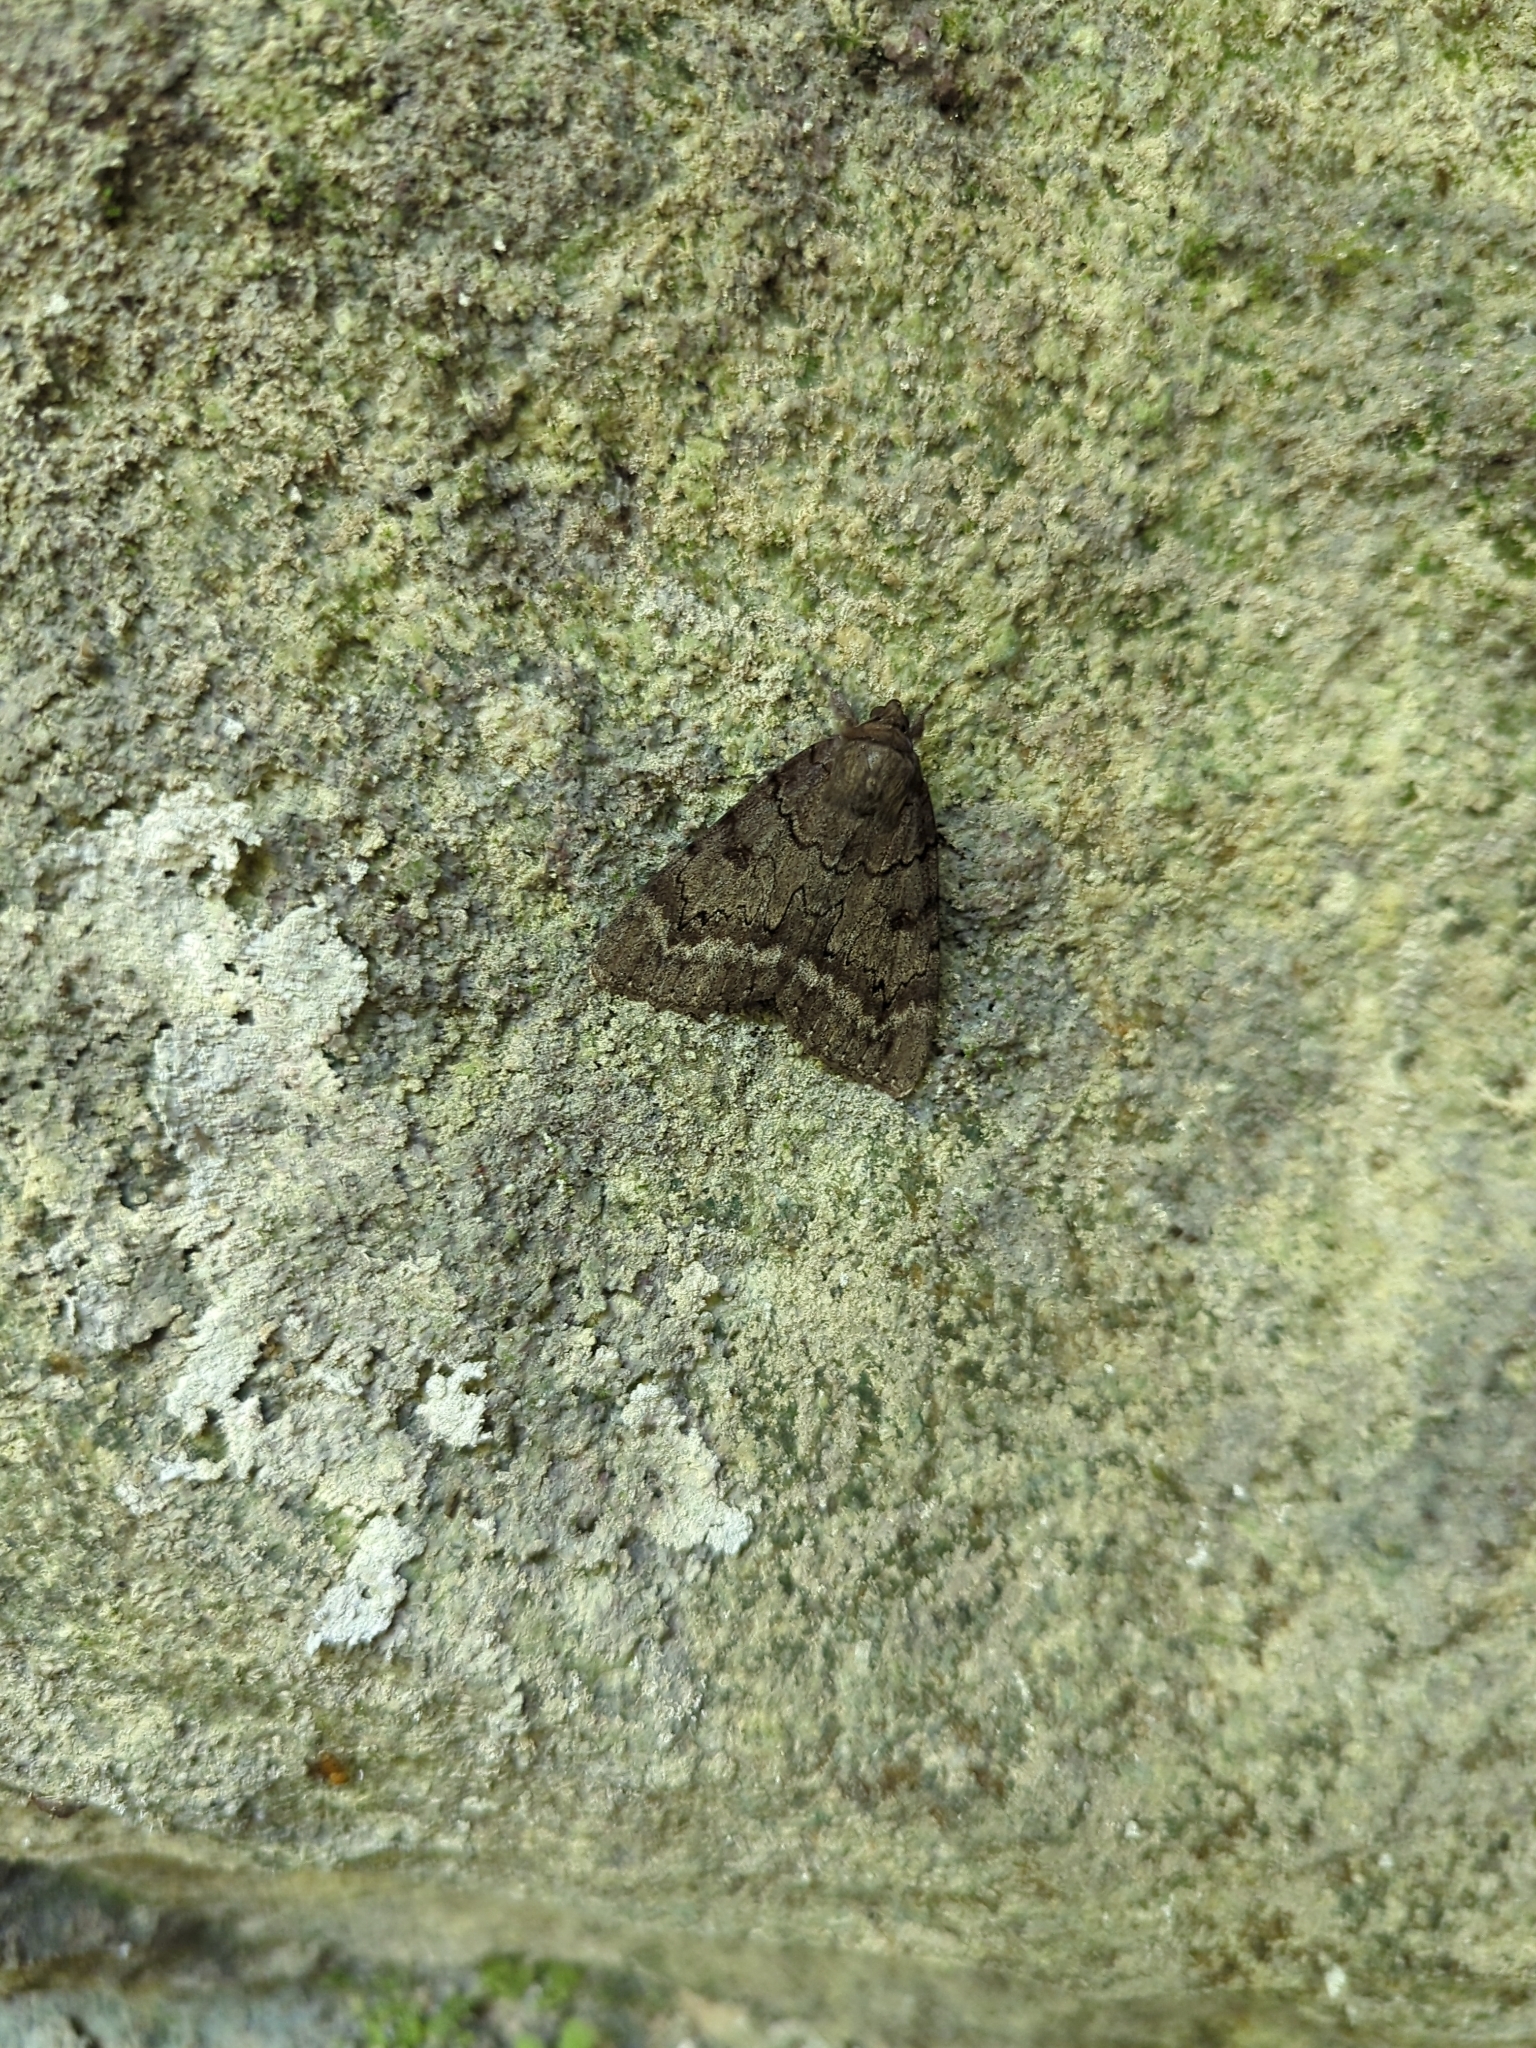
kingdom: Animalia
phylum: Arthropoda
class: Insecta
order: Lepidoptera
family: Erebidae
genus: Catocala
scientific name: Catocala obscura
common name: Obscure underwing moth
